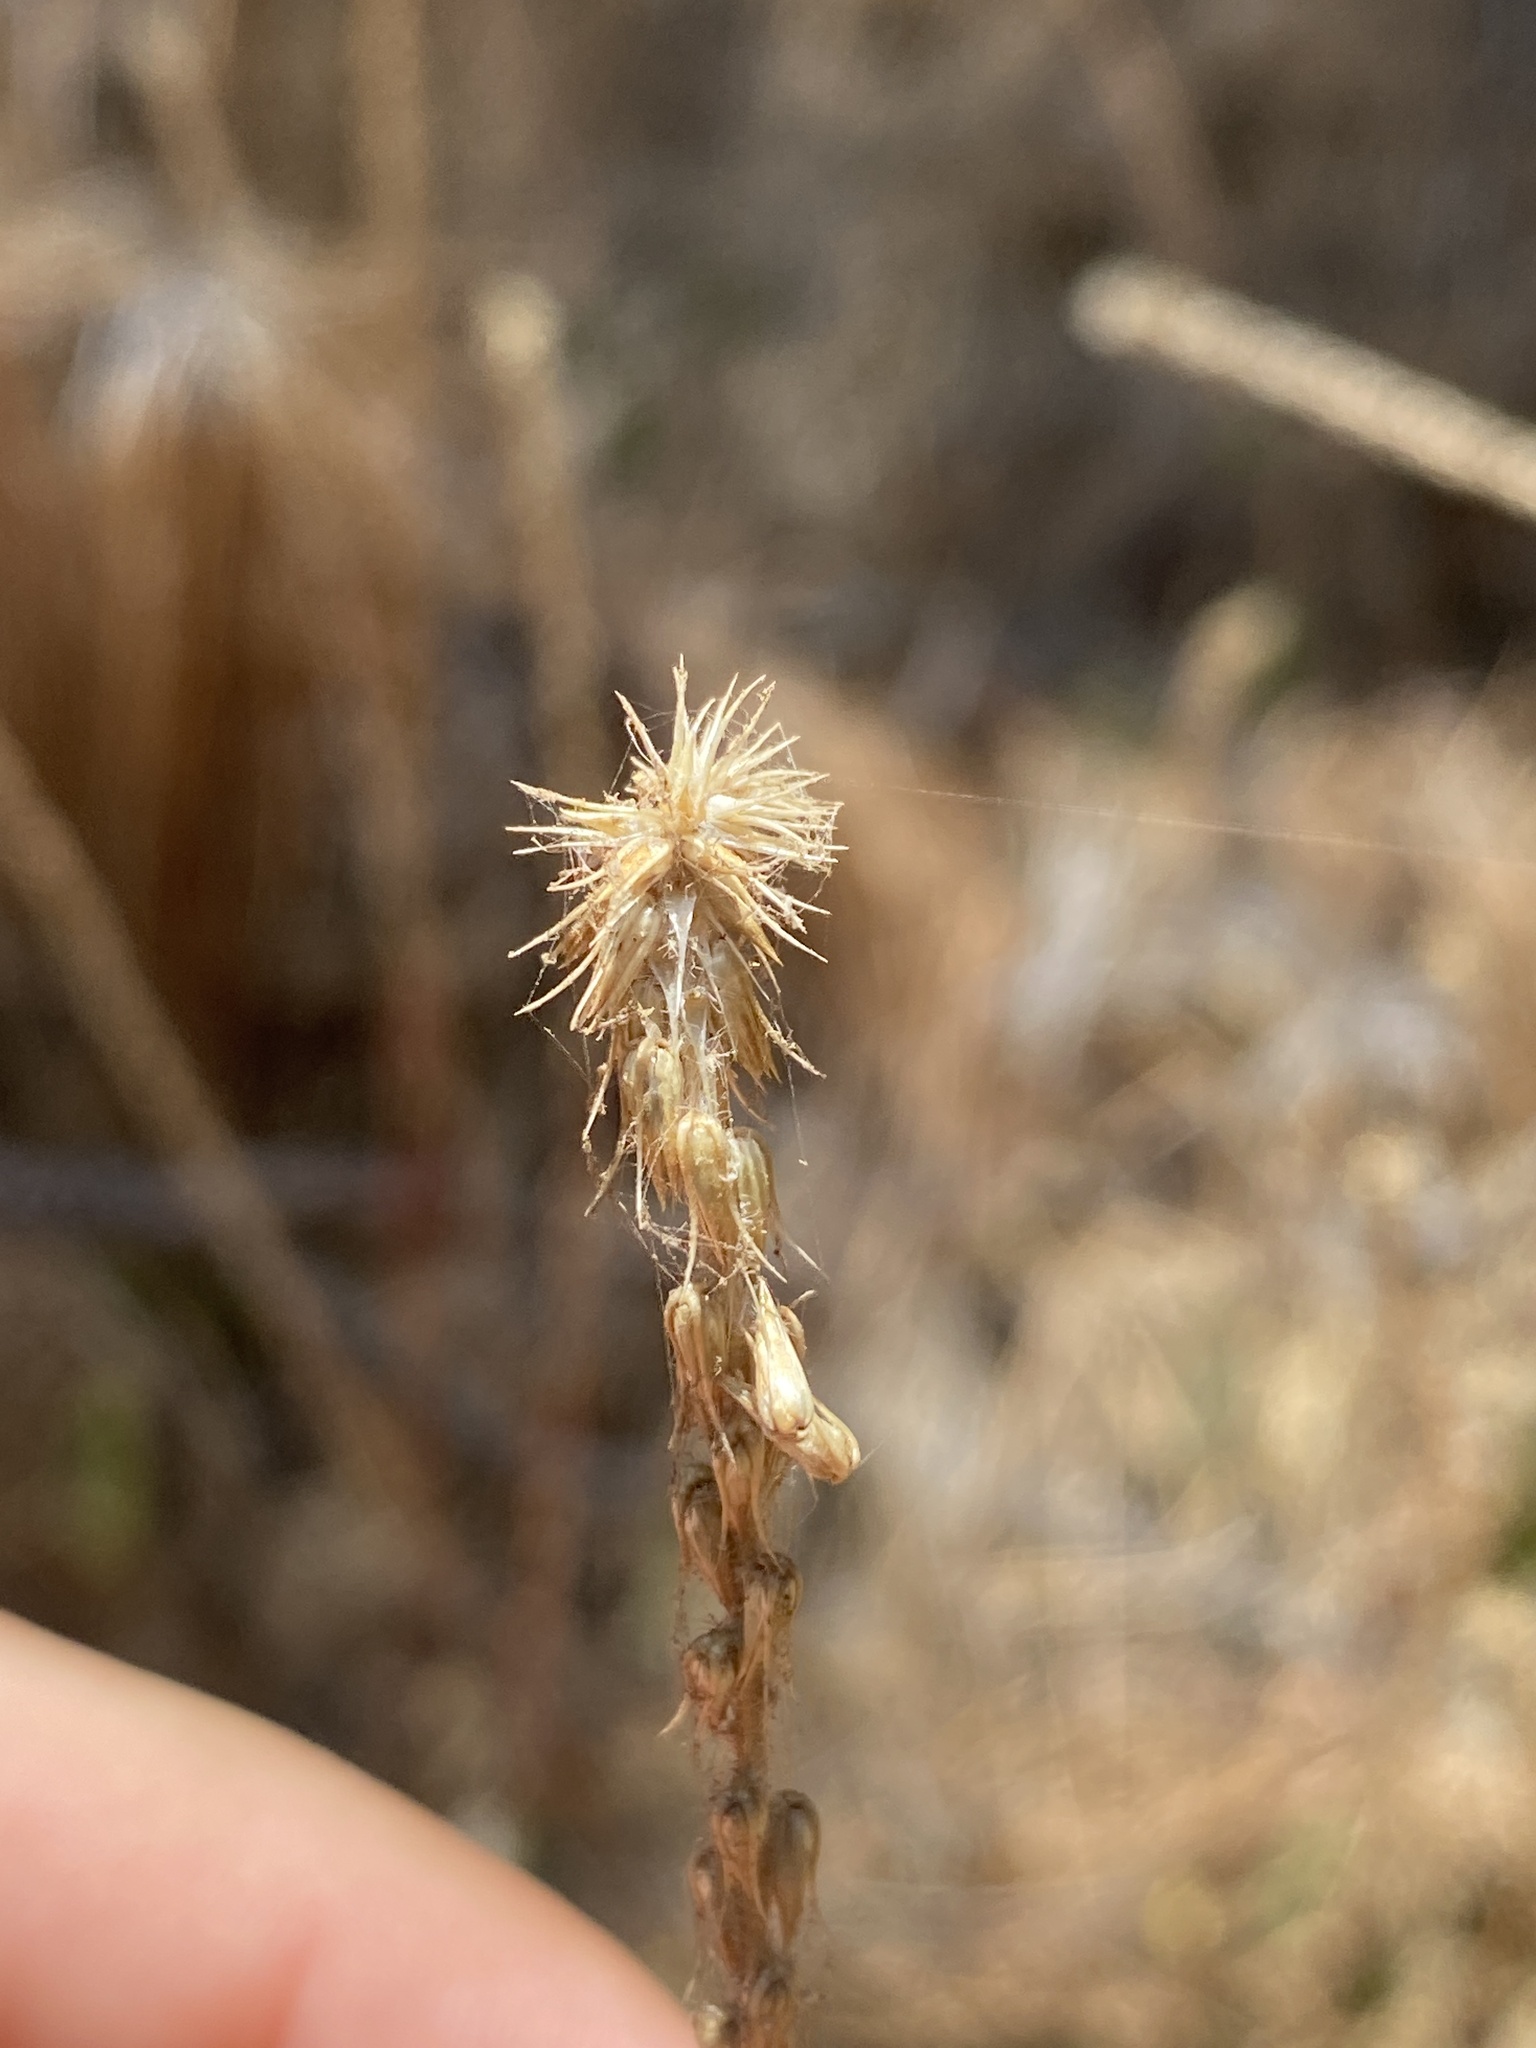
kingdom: Plantae
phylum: Tracheophyta
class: Magnoliopsida
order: Caryophyllales
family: Amaranthaceae
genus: Achyranthes
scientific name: Achyranthes aspera
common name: Devil's horsewhip
